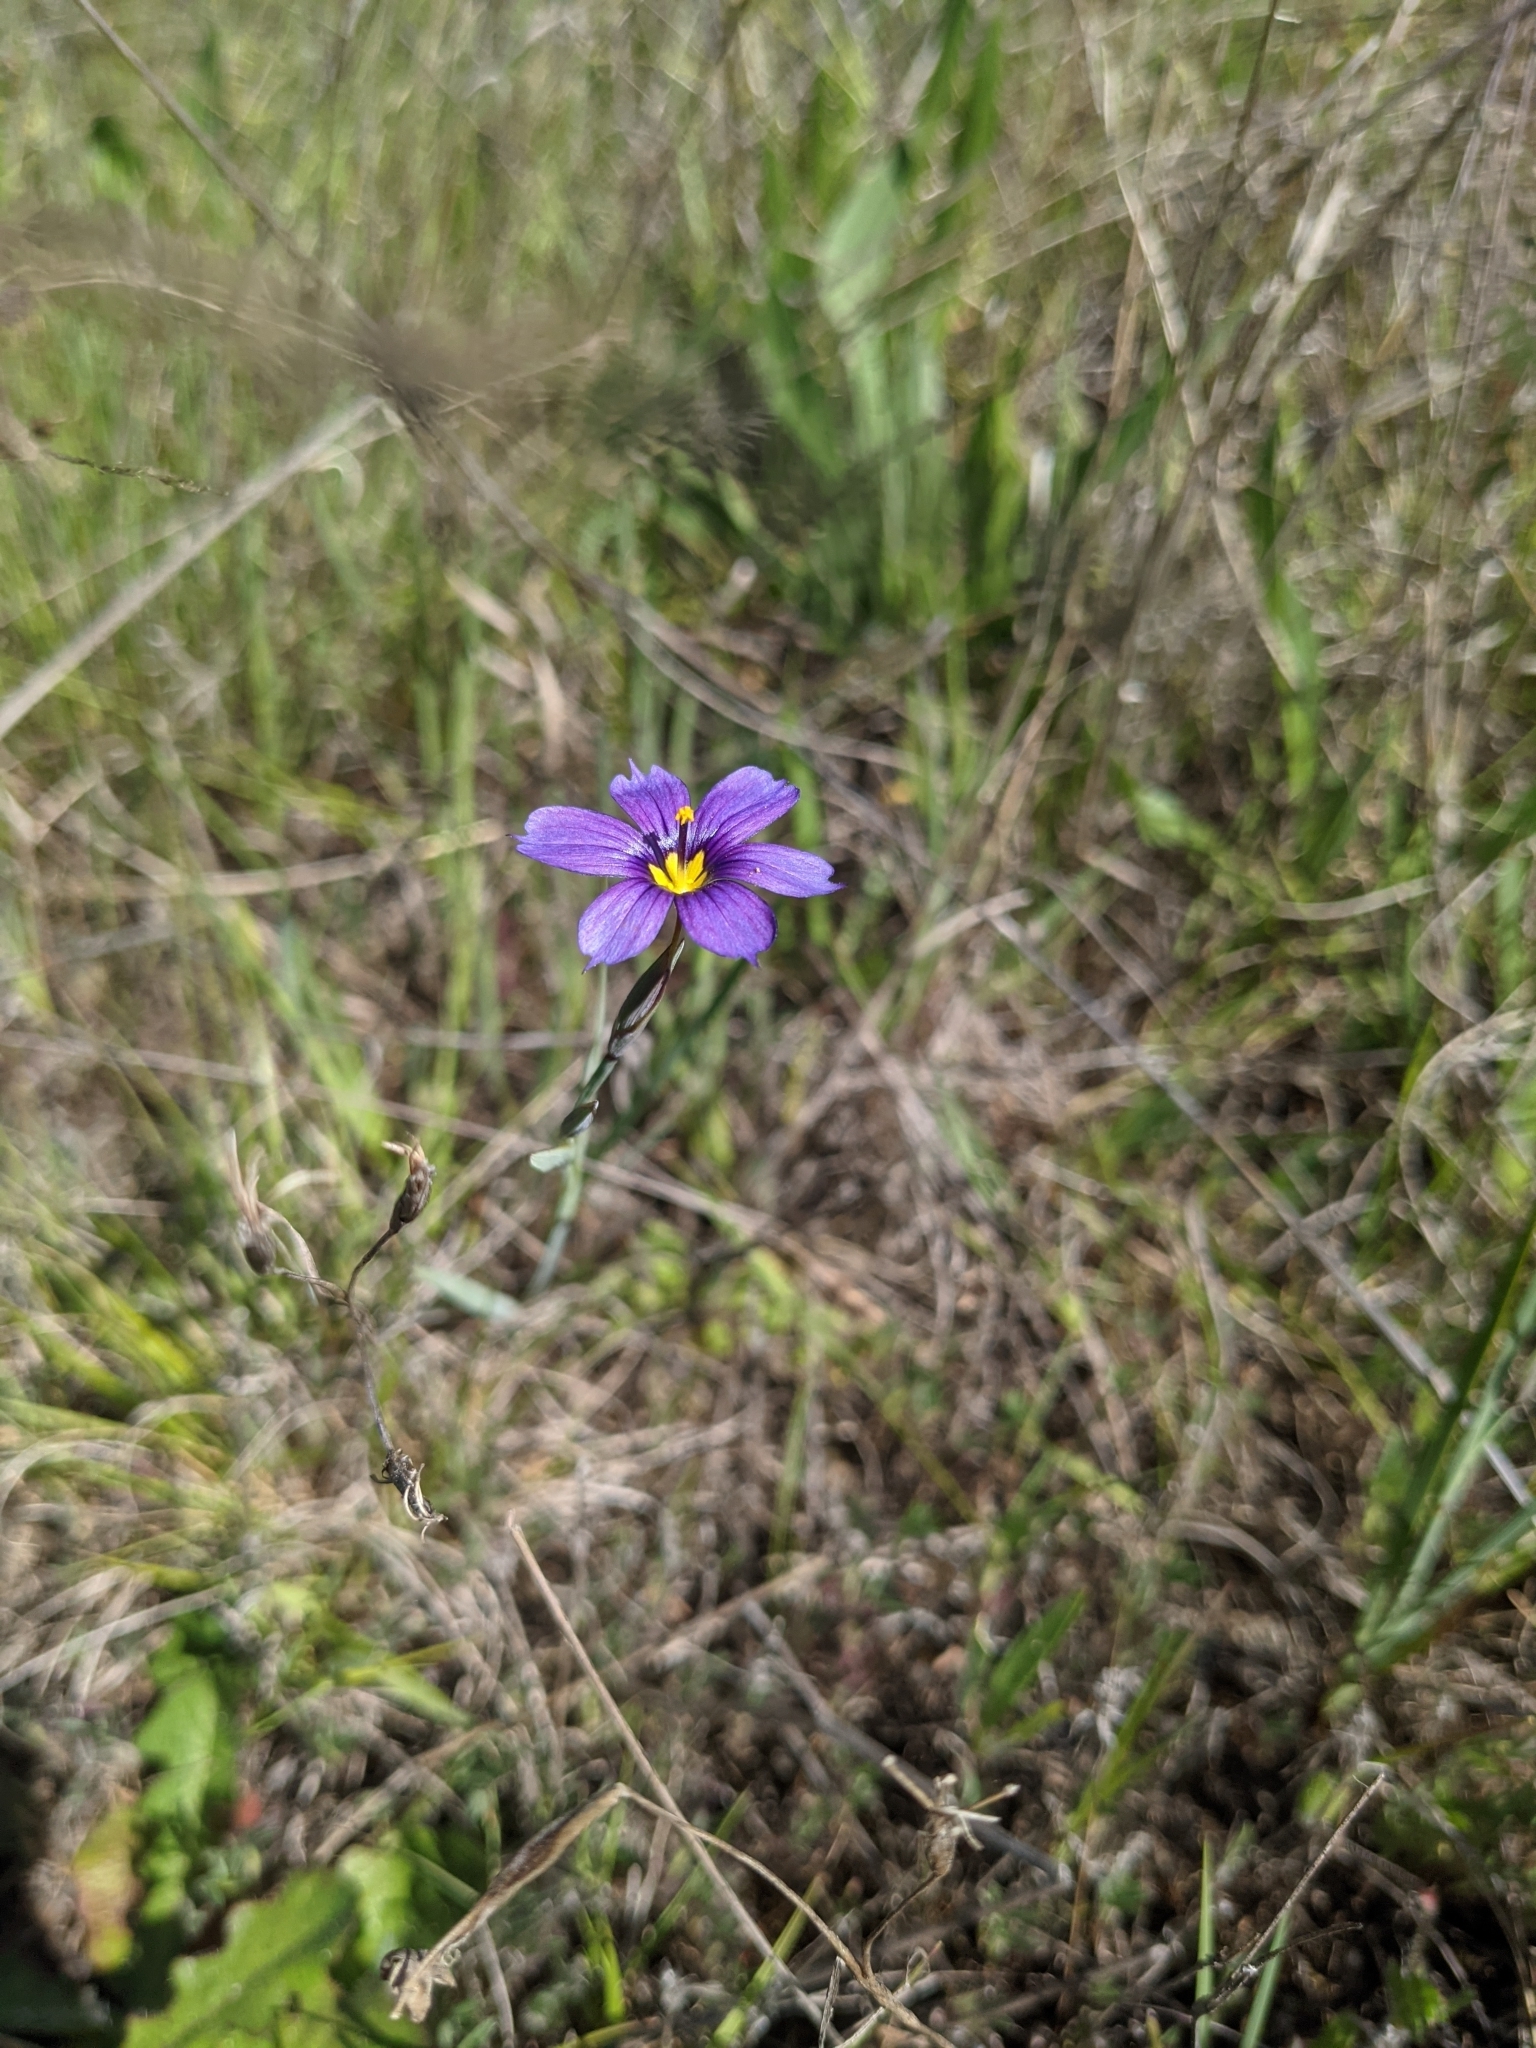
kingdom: Plantae
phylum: Tracheophyta
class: Liliopsida
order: Asparagales
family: Iridaceae
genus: Sisyrinchium
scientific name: Sisyrinchium bellum
